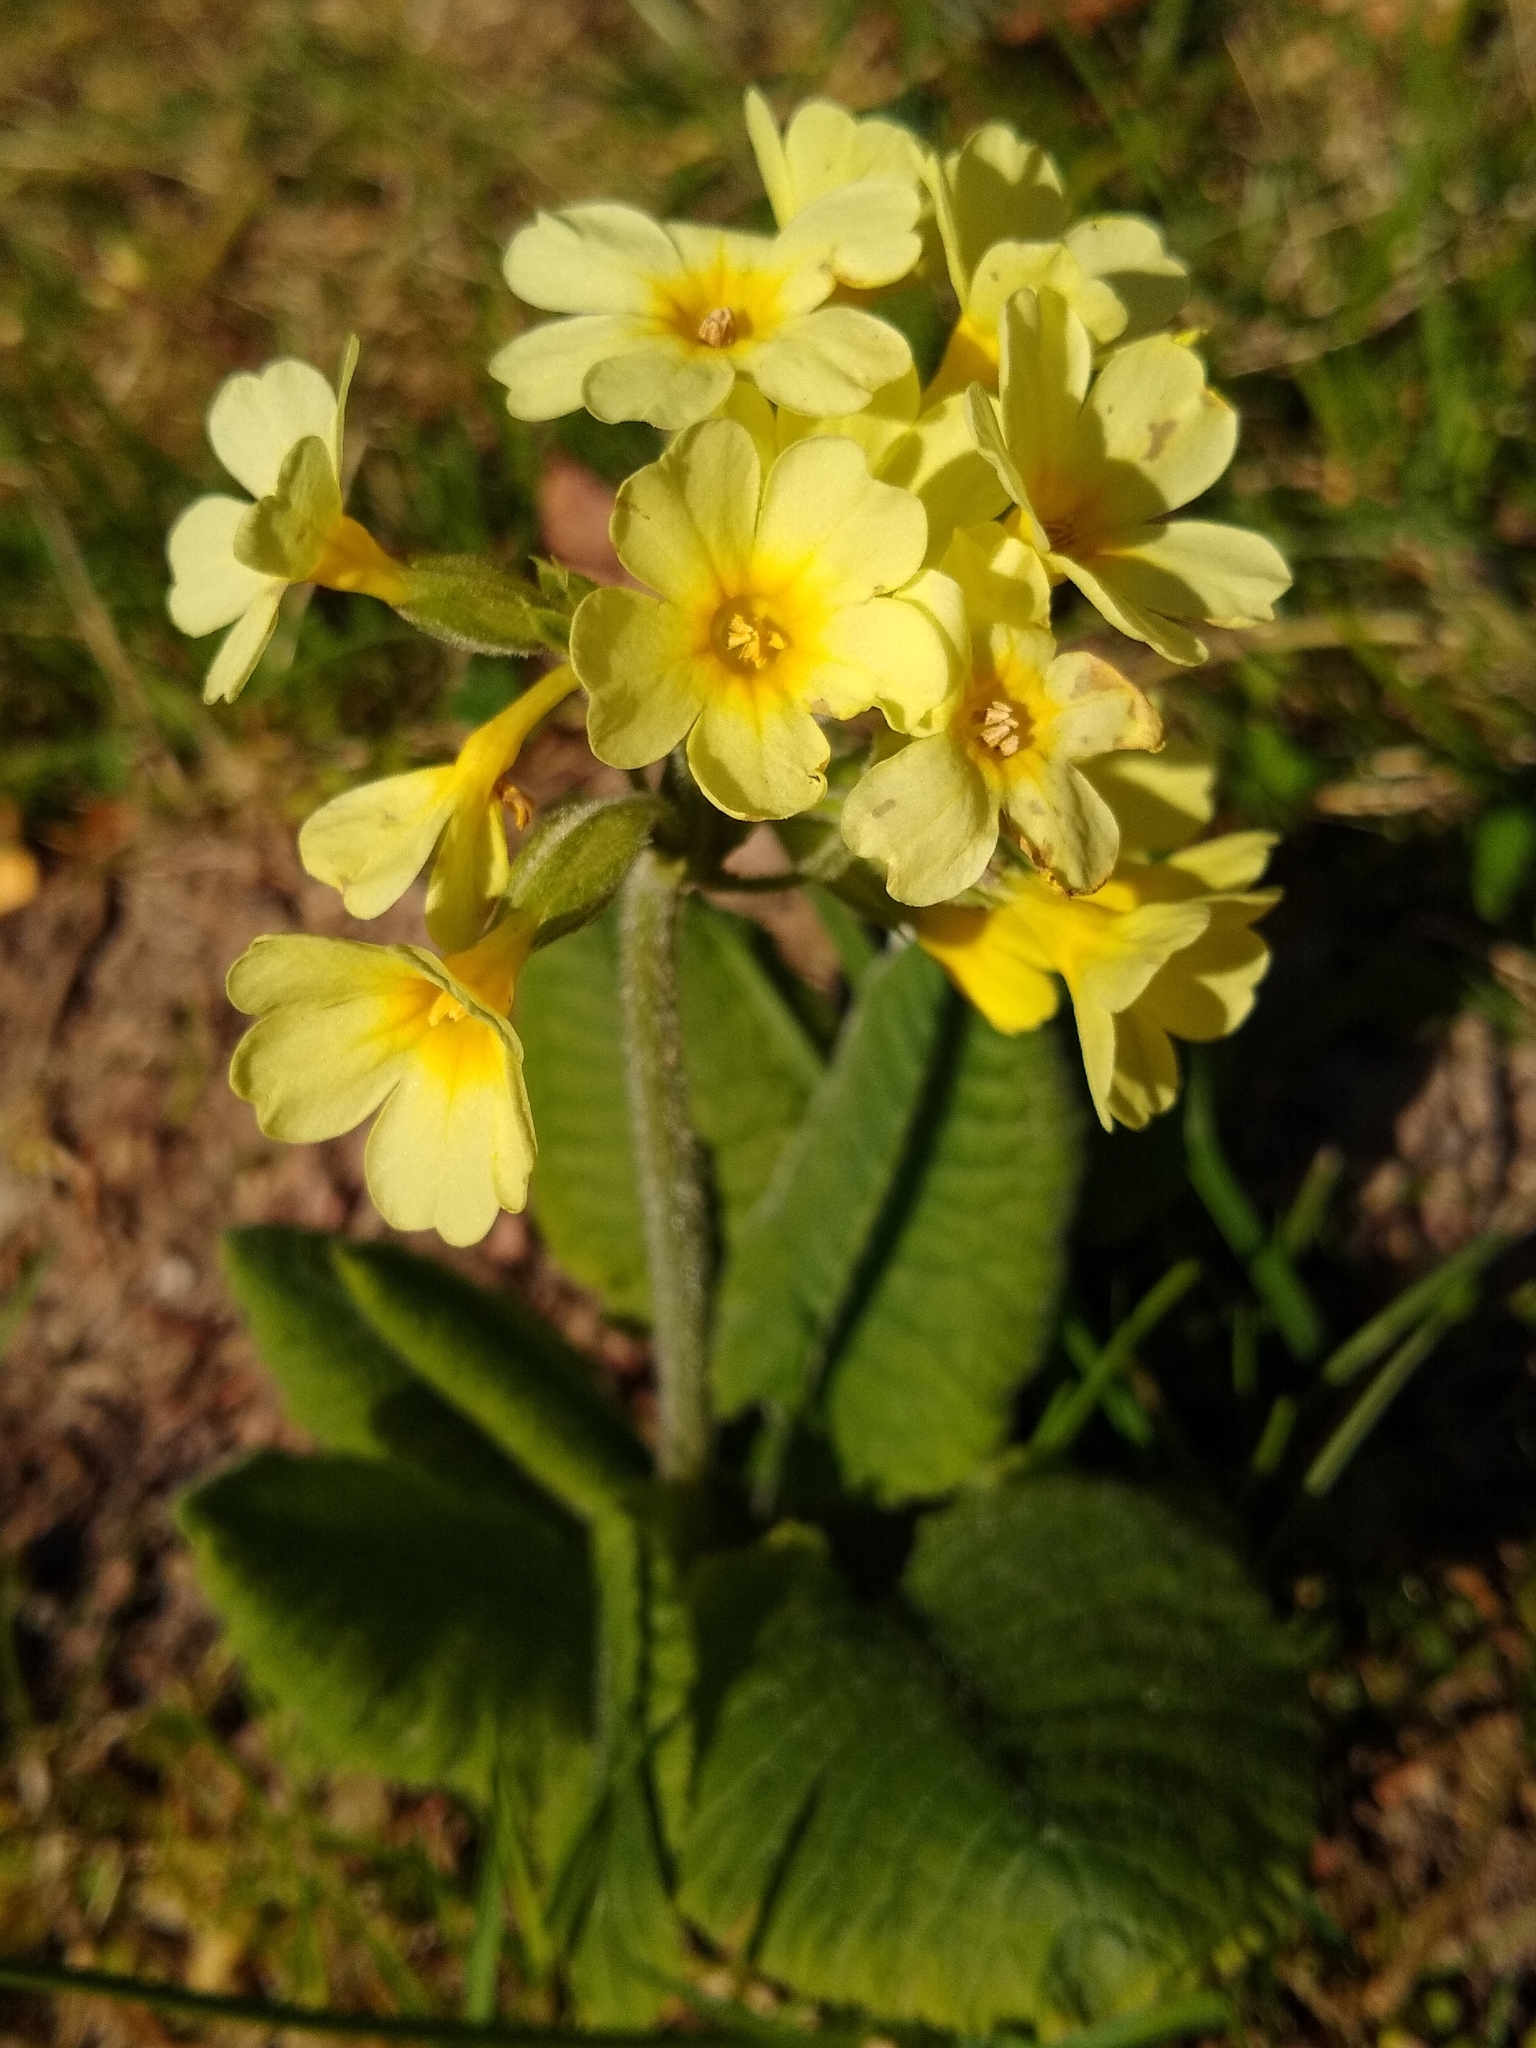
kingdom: Plantae
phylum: Tracheophyta
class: Magnoliopsida
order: Ericales
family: Primulaceae
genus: Primula
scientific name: Primula elatior
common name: Oxlip
